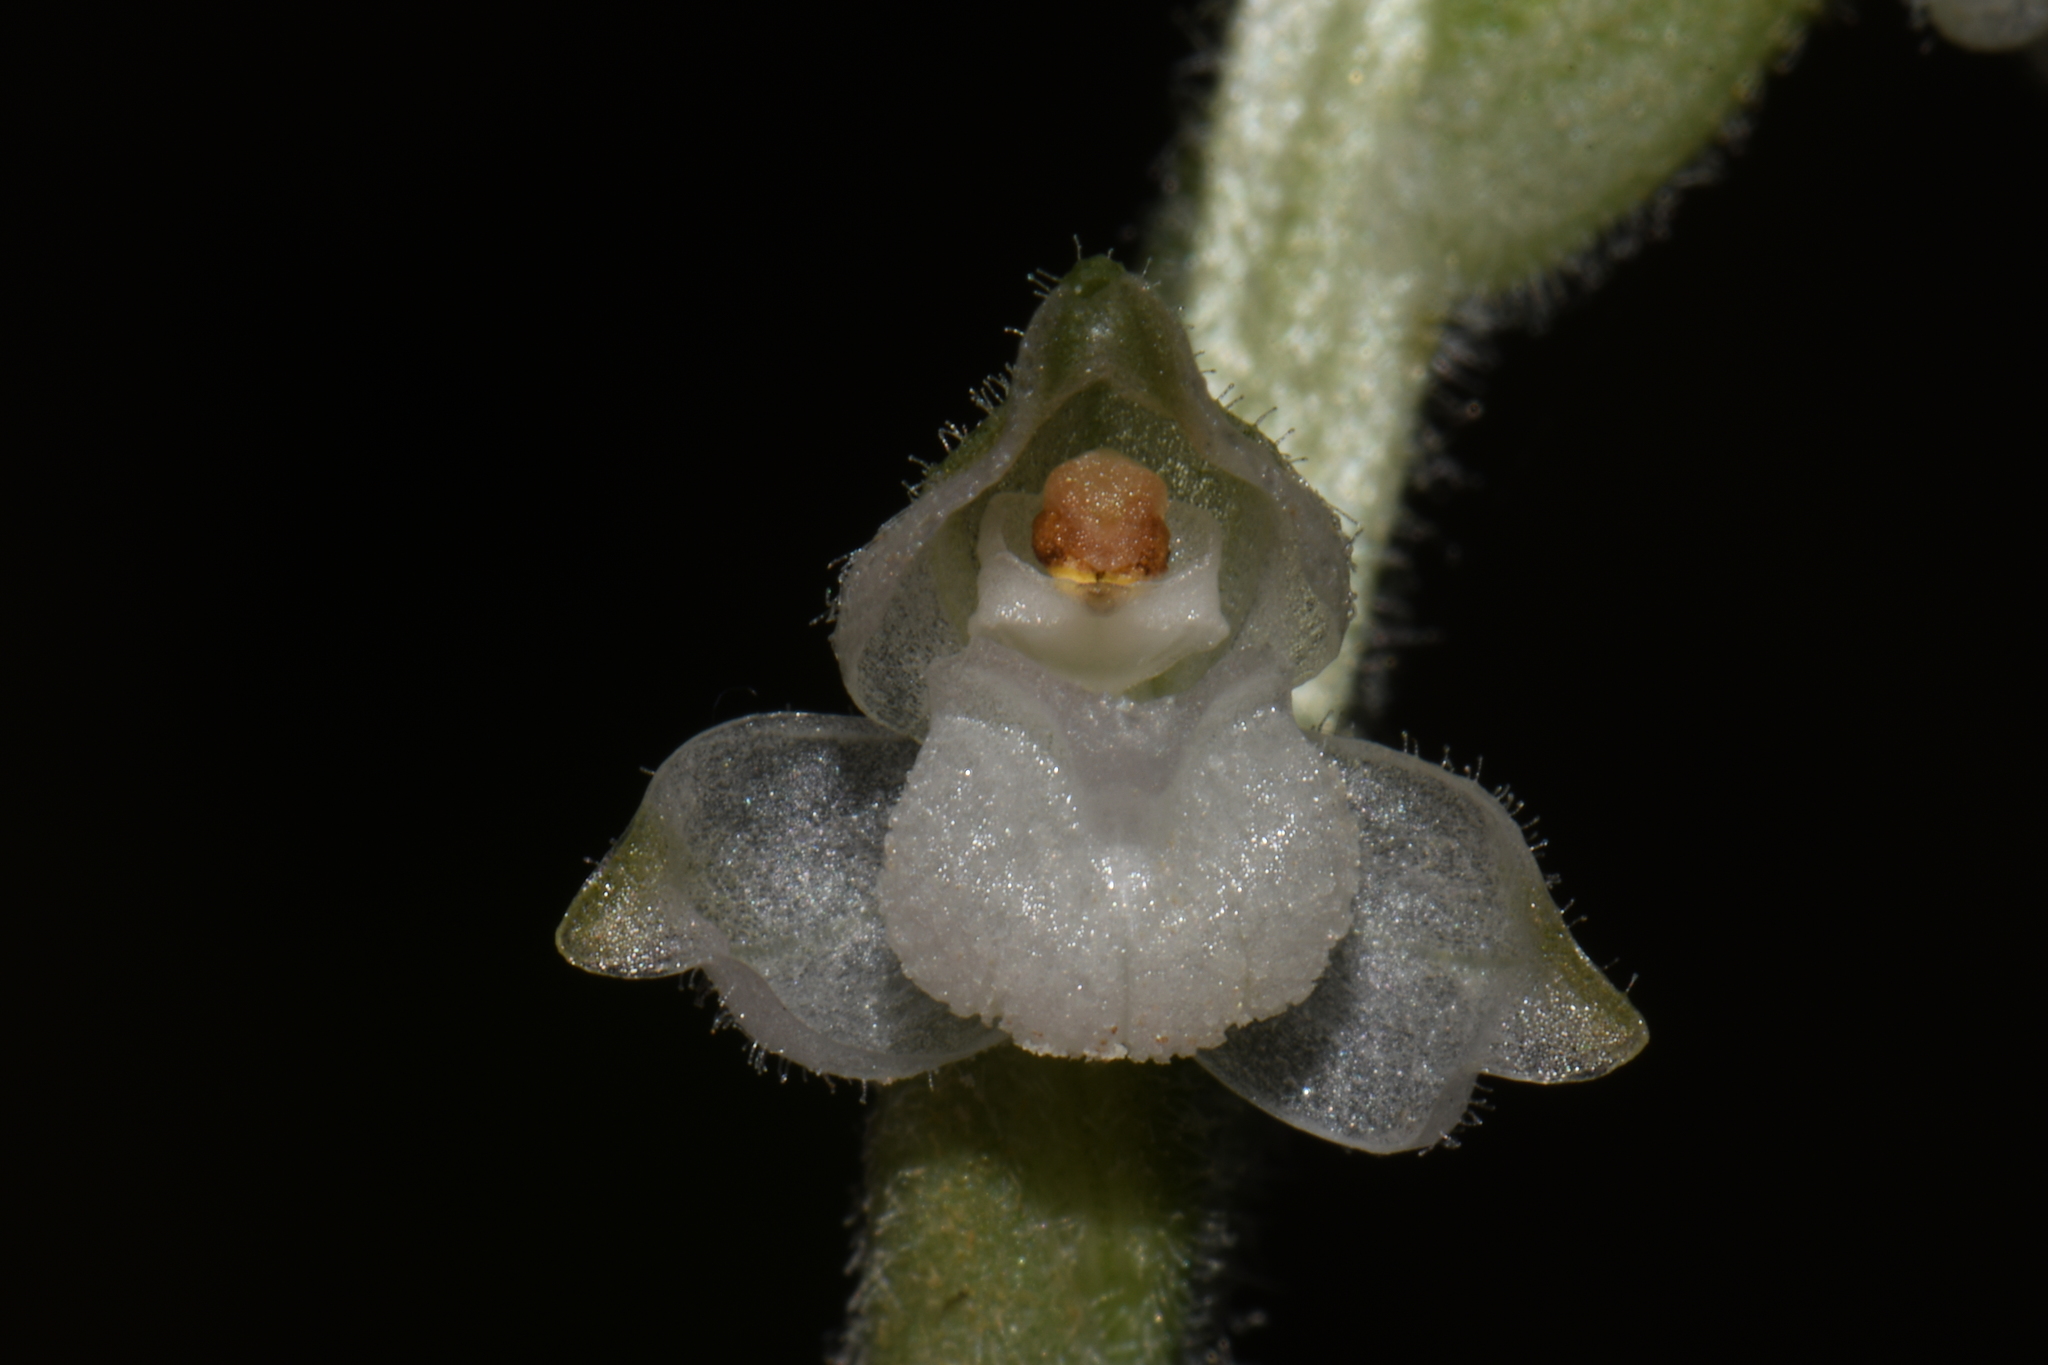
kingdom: Plantae
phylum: Tracheophyta
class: Liliopsida
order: Asparagales
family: Orchidaceae
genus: Goodyera
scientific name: Goodyera pubescens
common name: Downy rattlesnake-plantain
